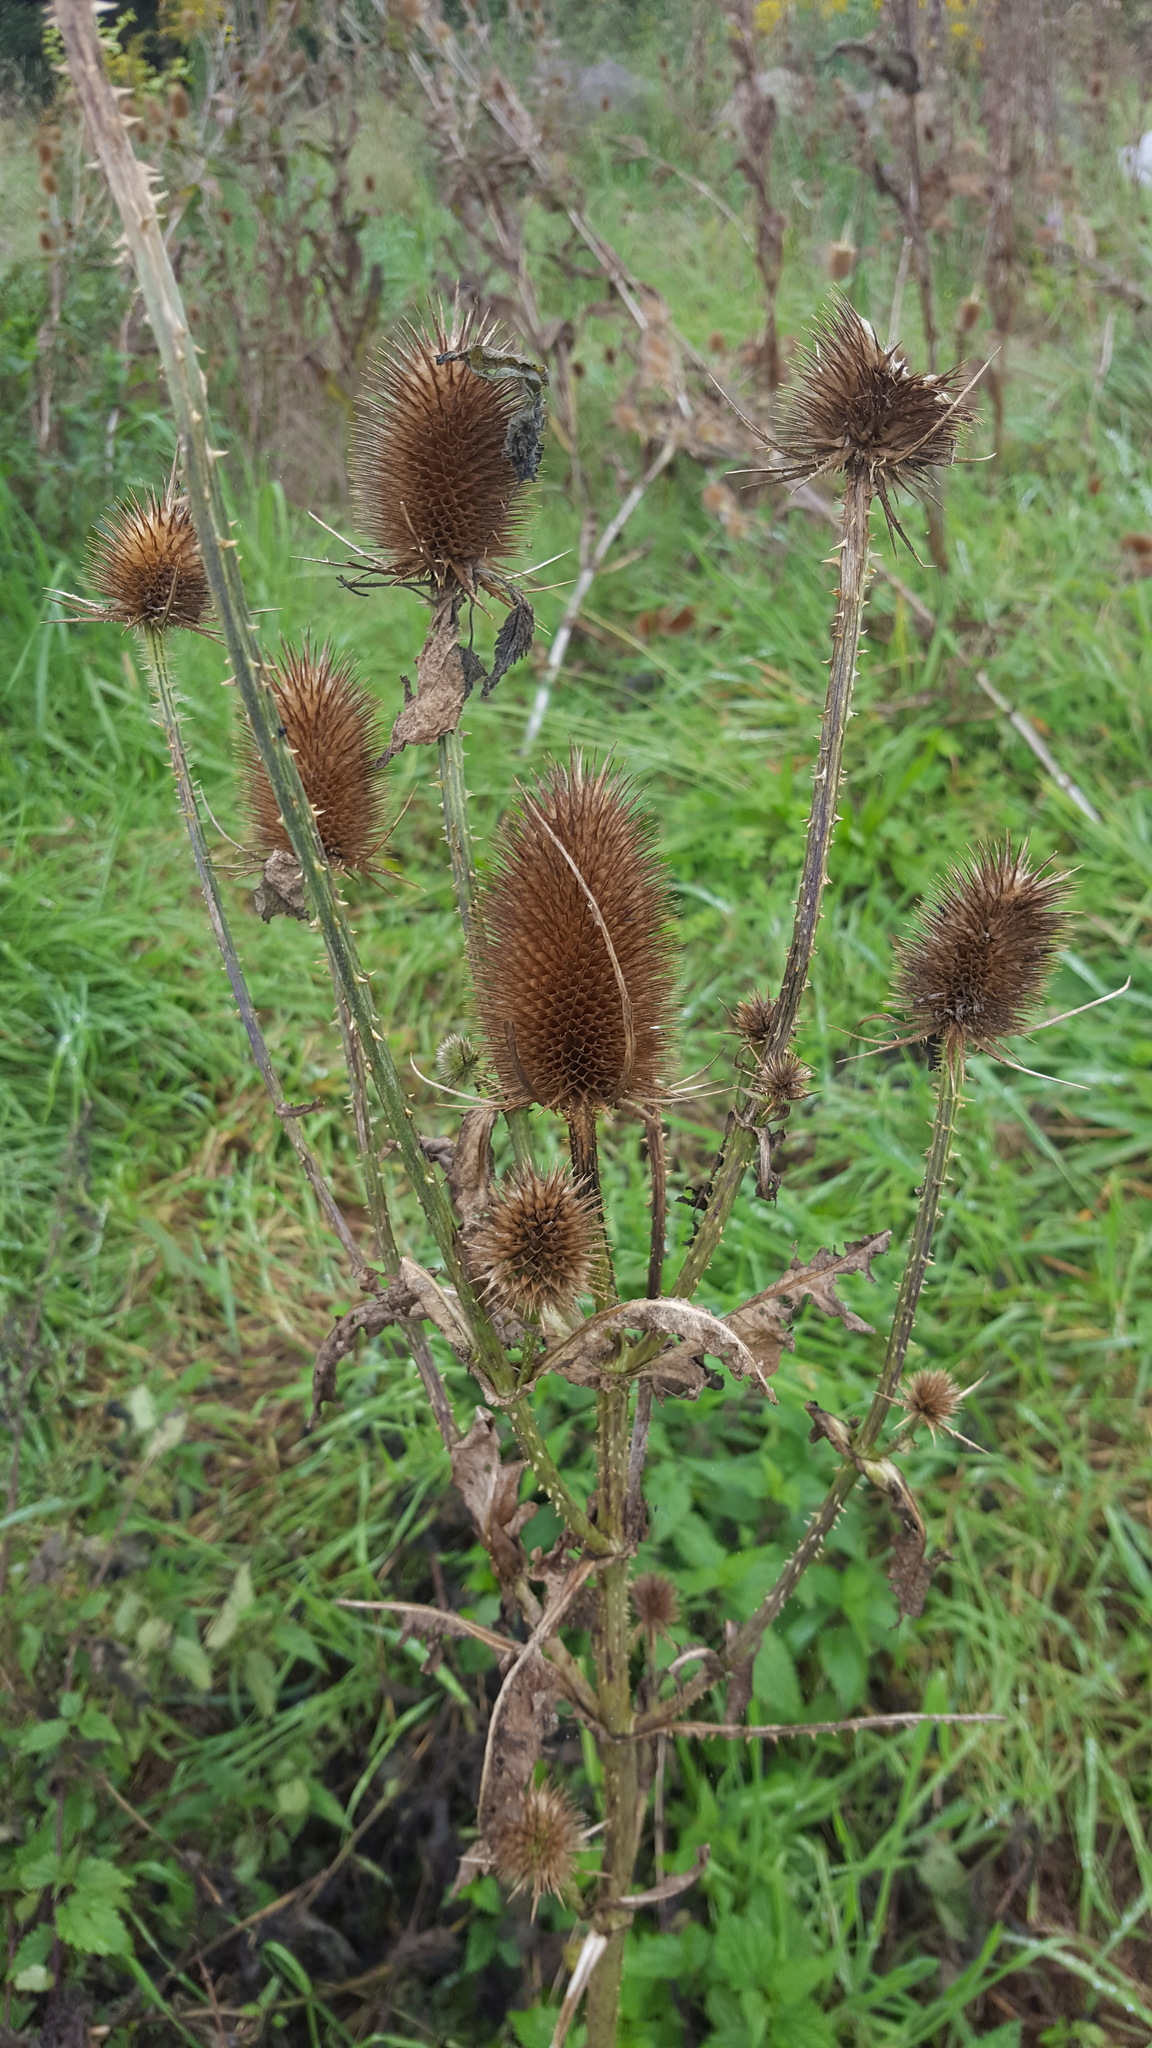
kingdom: Plantae
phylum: Tracheophyta
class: Magnoliopsida
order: Dipsacales
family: Caprifoliaceae
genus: Dipsacus
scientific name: Dipsacus fullonum
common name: Teasel
